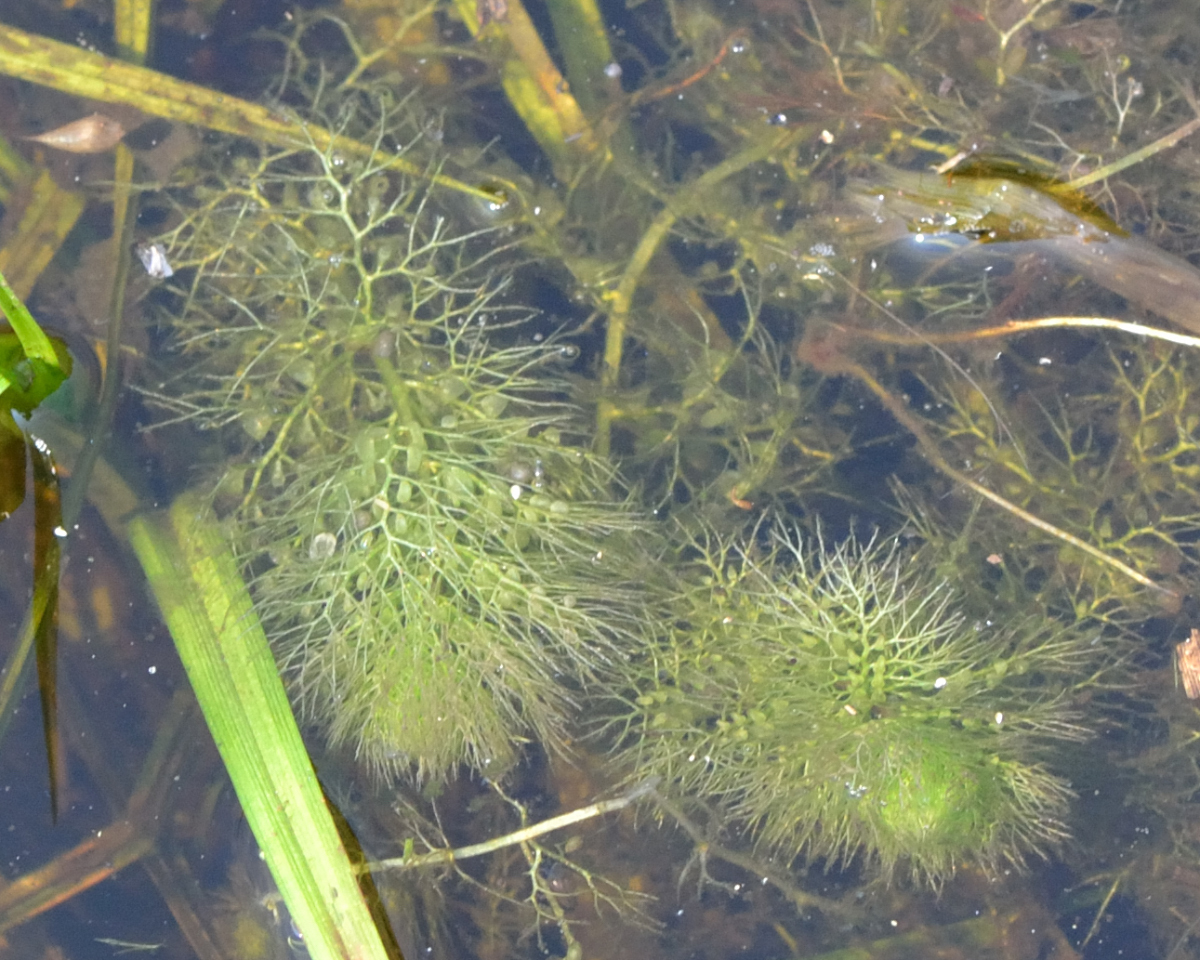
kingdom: Plantae
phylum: Tracheophyta
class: Magnoliopsida
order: Lamiales
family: Lentibulariaceae
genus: Utricularia
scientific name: Utricularia
